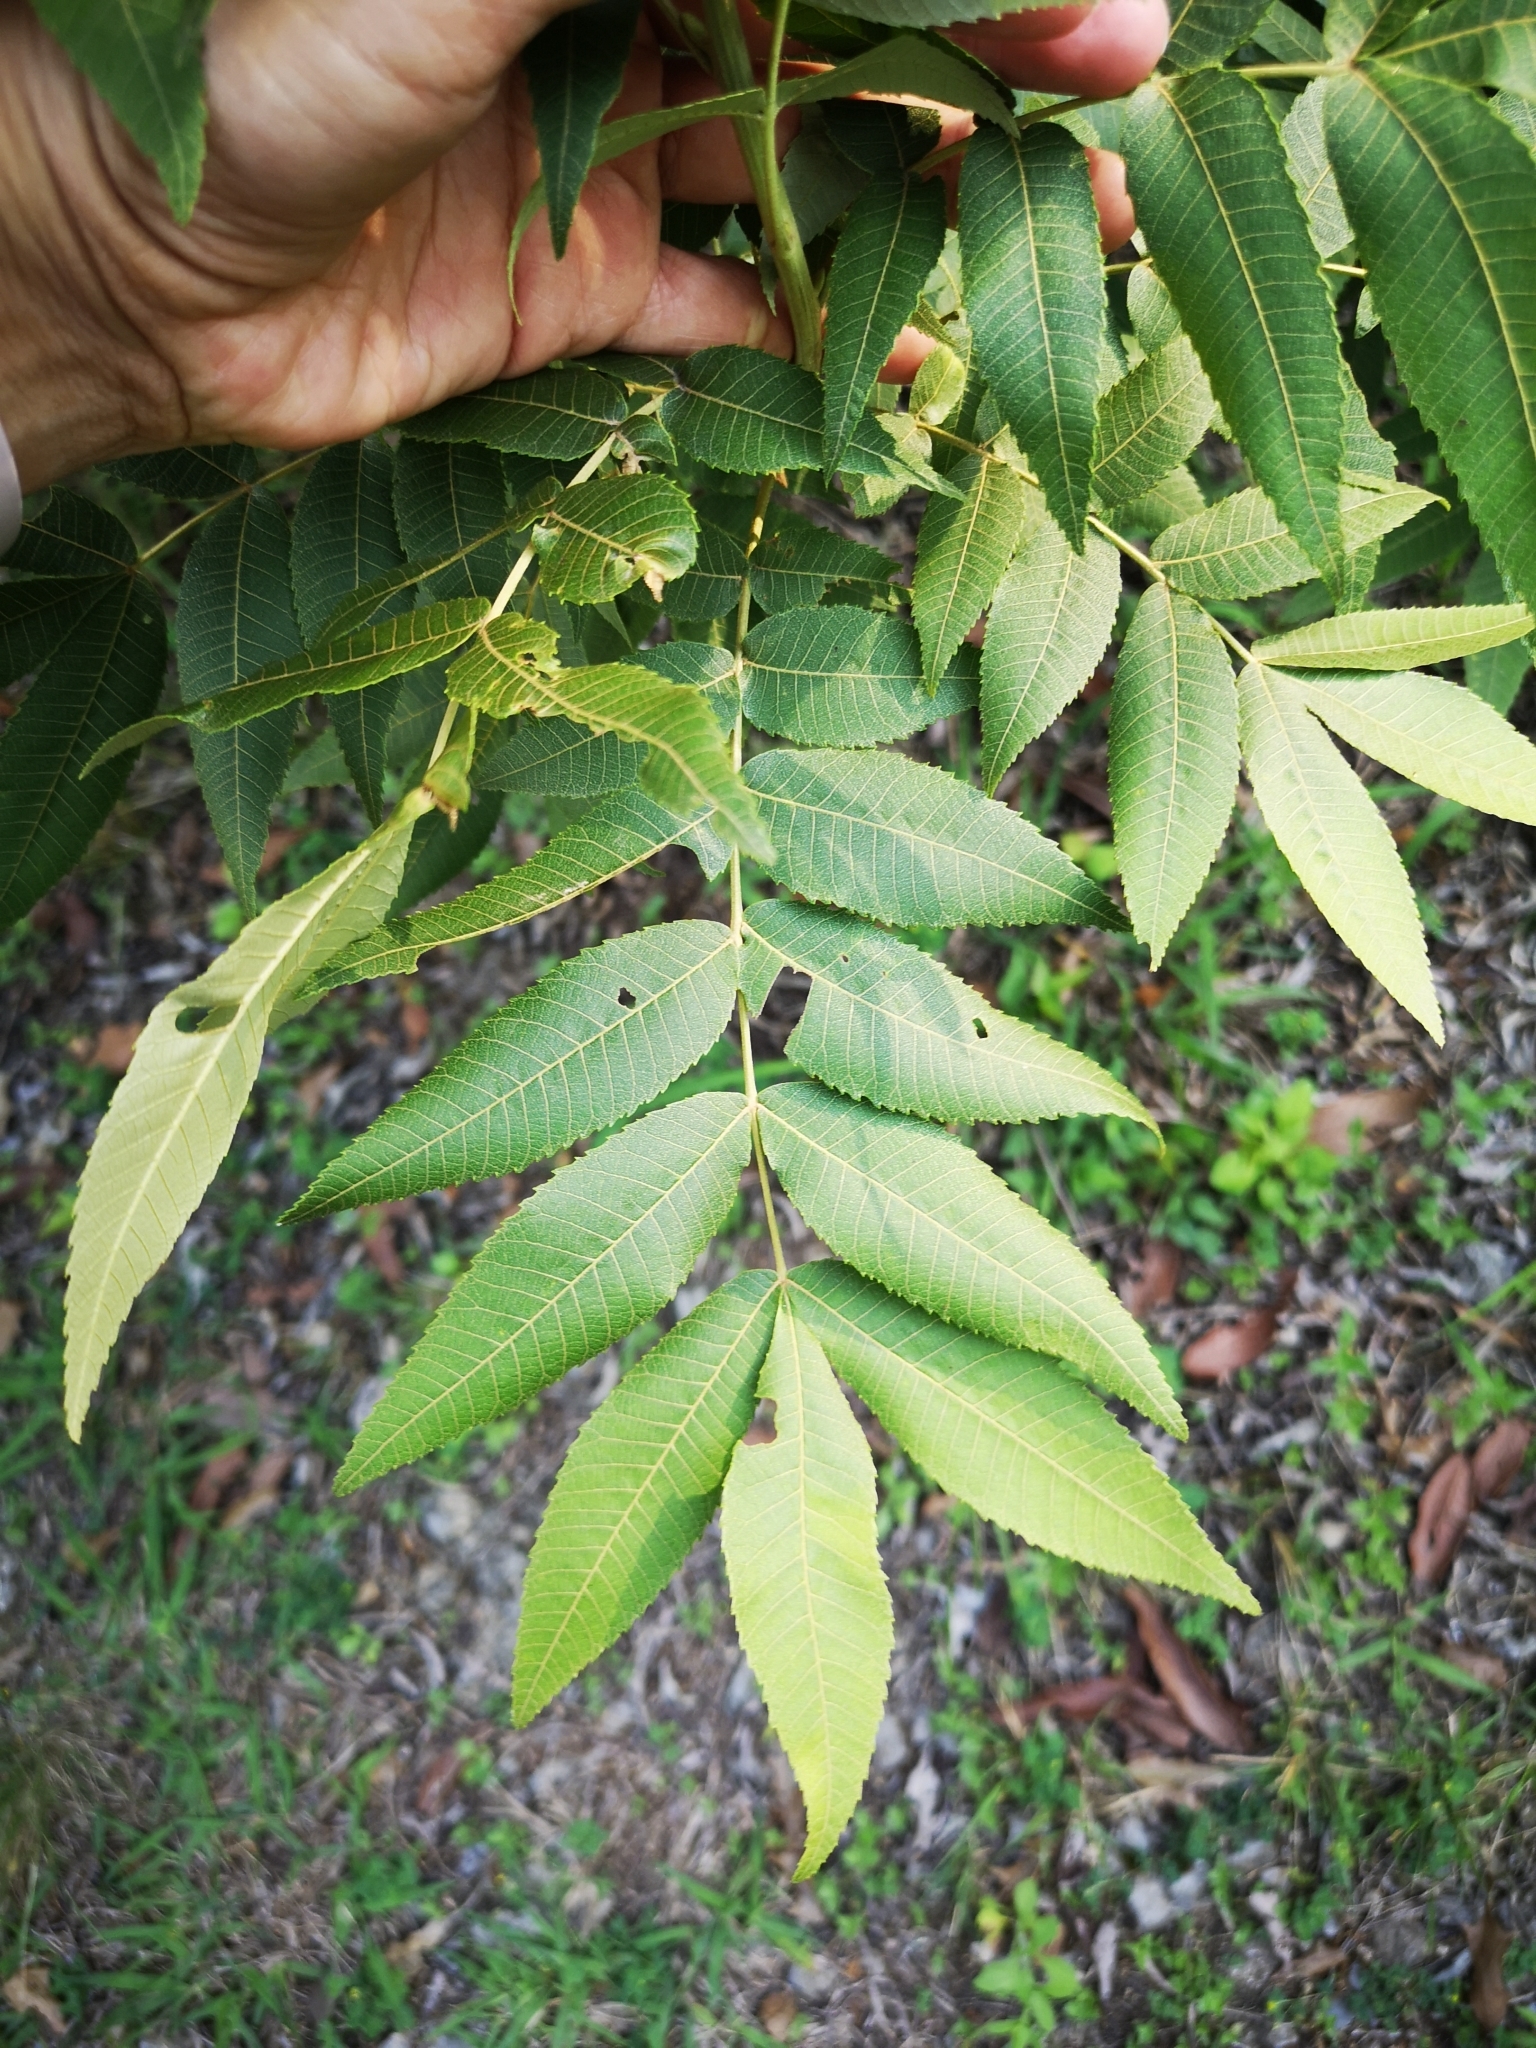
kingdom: Plantae
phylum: Tracheophyta
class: Magnoliopsida
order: Fagales
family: Juglandaceae
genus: Carya
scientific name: Carya illinoinensis
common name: Pecan
